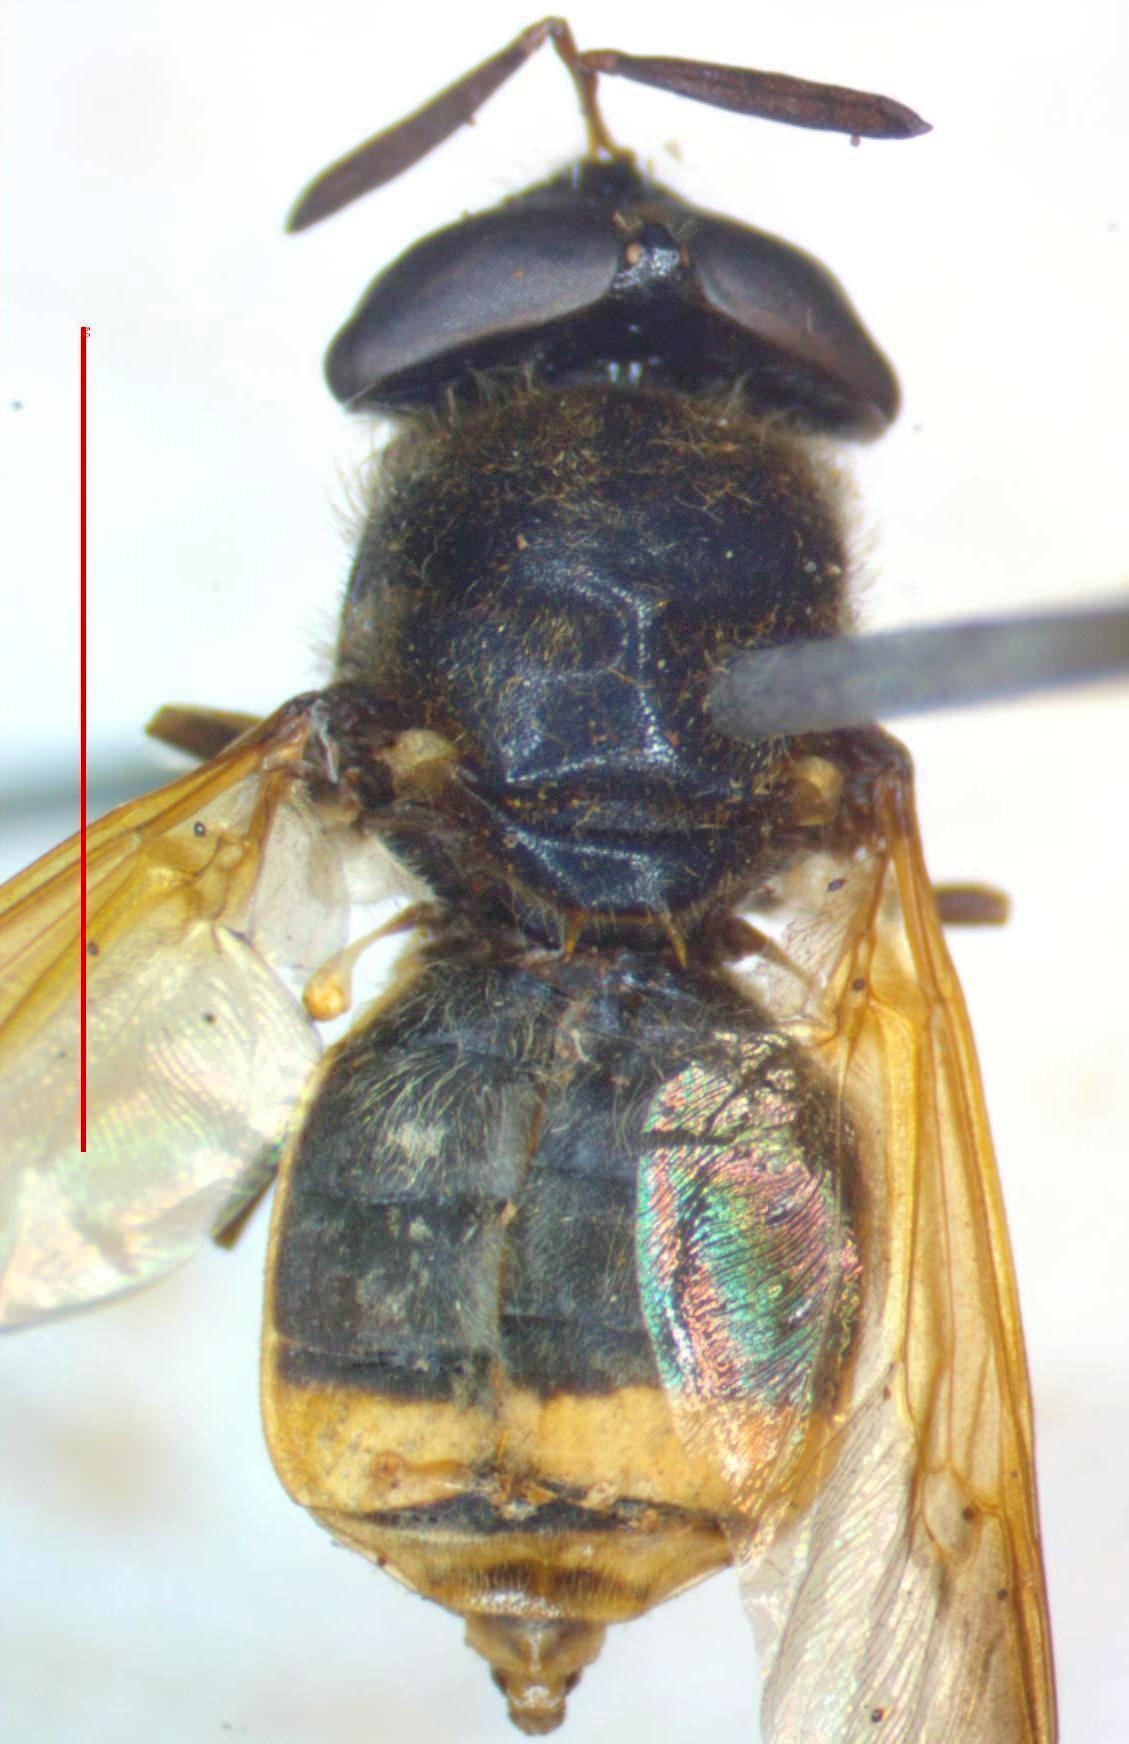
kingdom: Animalia
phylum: Arthropoda
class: Insecta
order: Diptera
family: Stratiomyidae
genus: Hoplitimyia
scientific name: Hoplitimyia mutabilis
